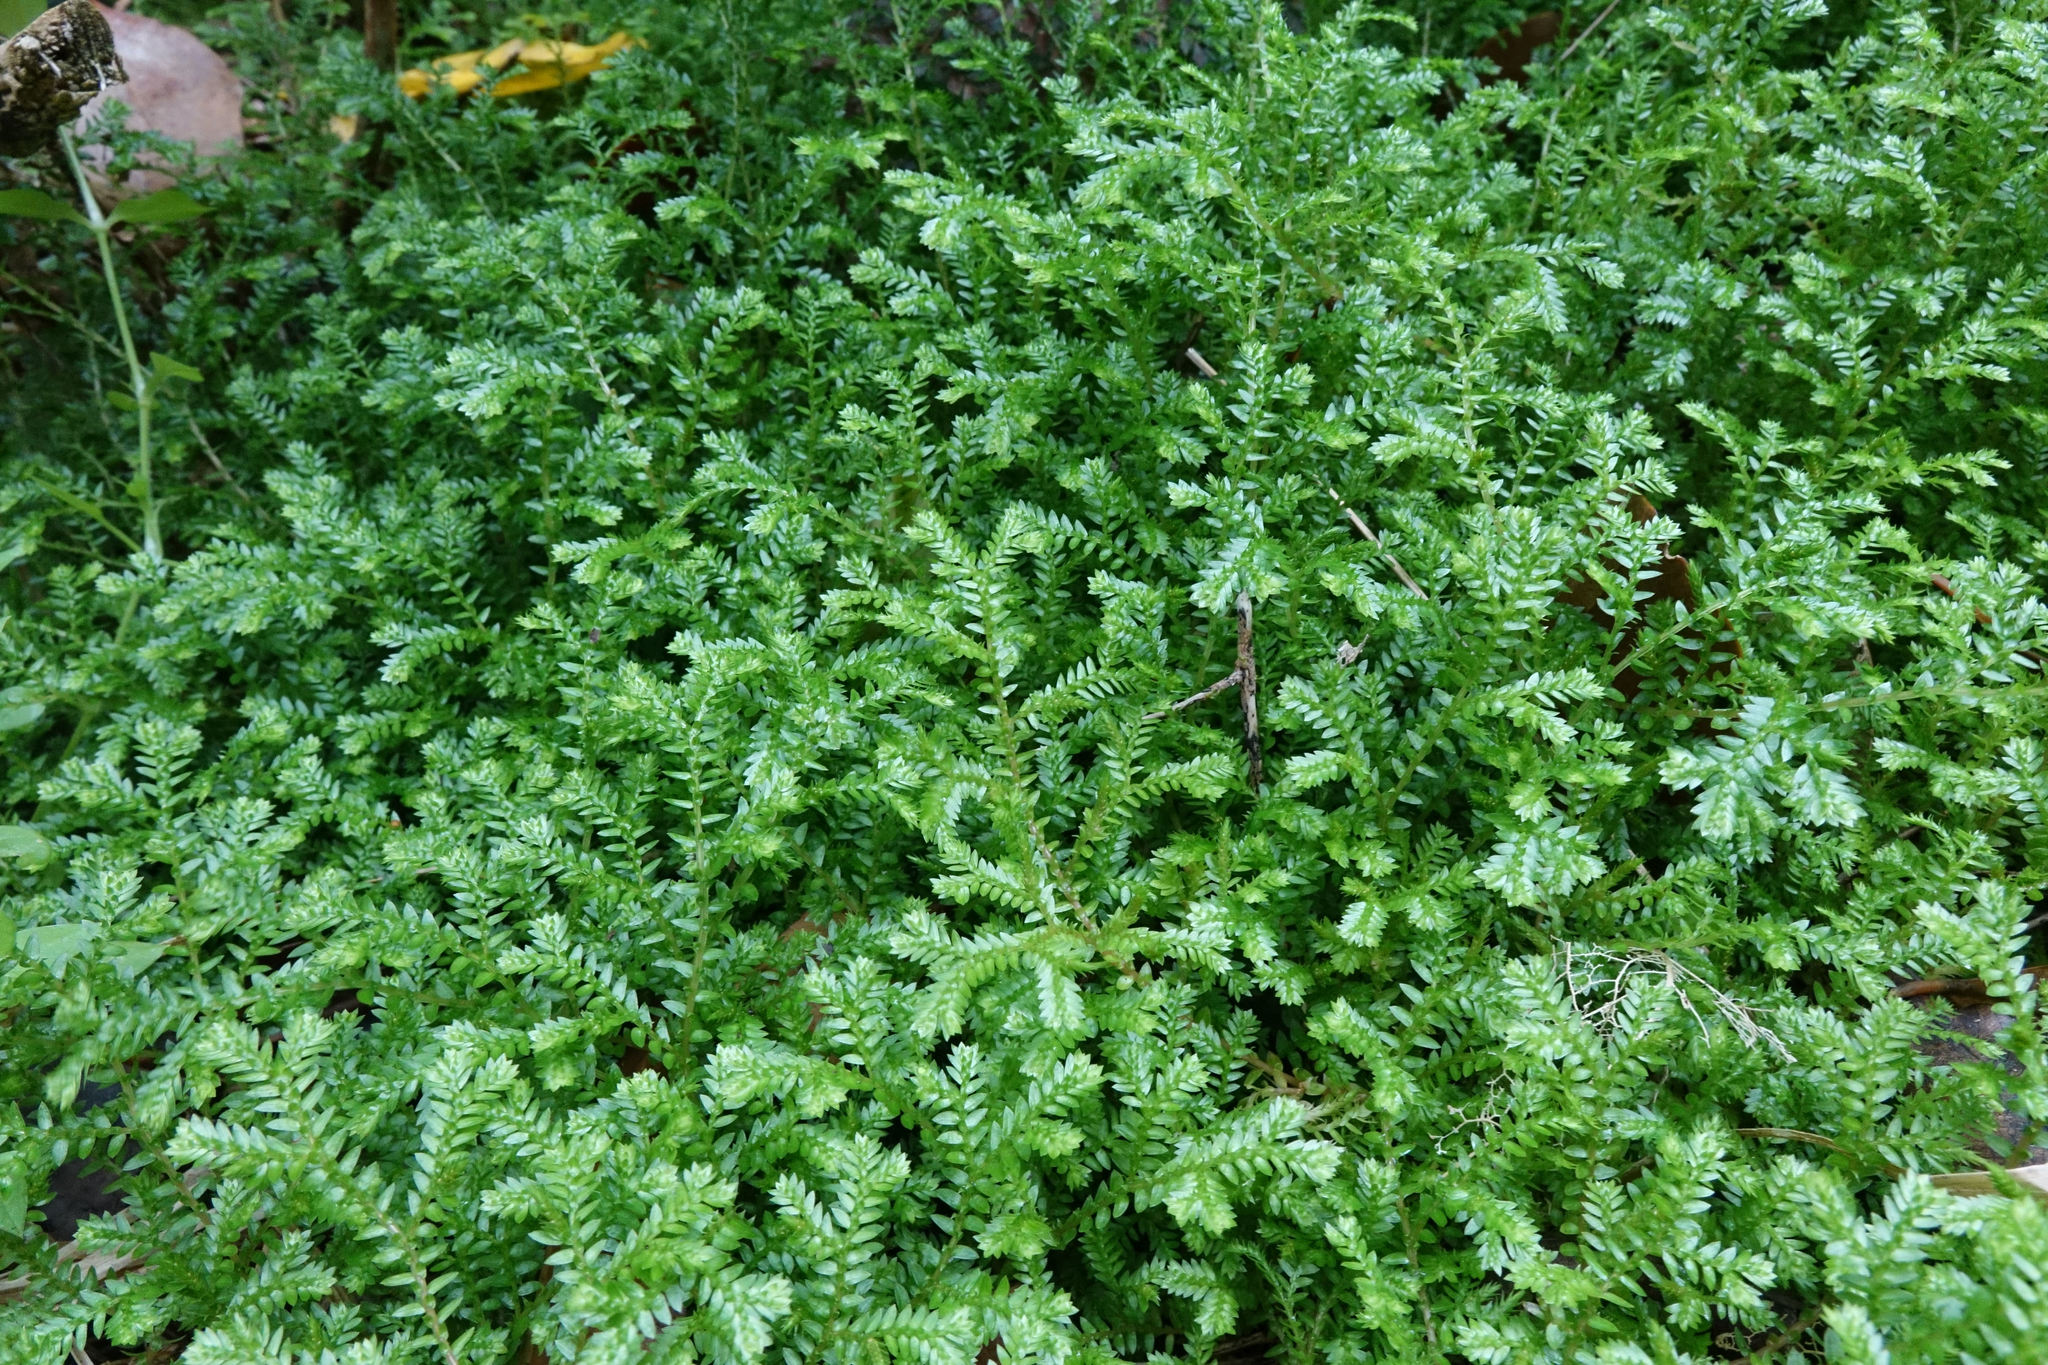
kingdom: Plantae
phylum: Tracheophyta
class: Lycopodiopsida
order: Selaginellales
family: Selaginellaceae
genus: Selaginella
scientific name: Selaginella kraussiana
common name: Krauss' spikemoss
